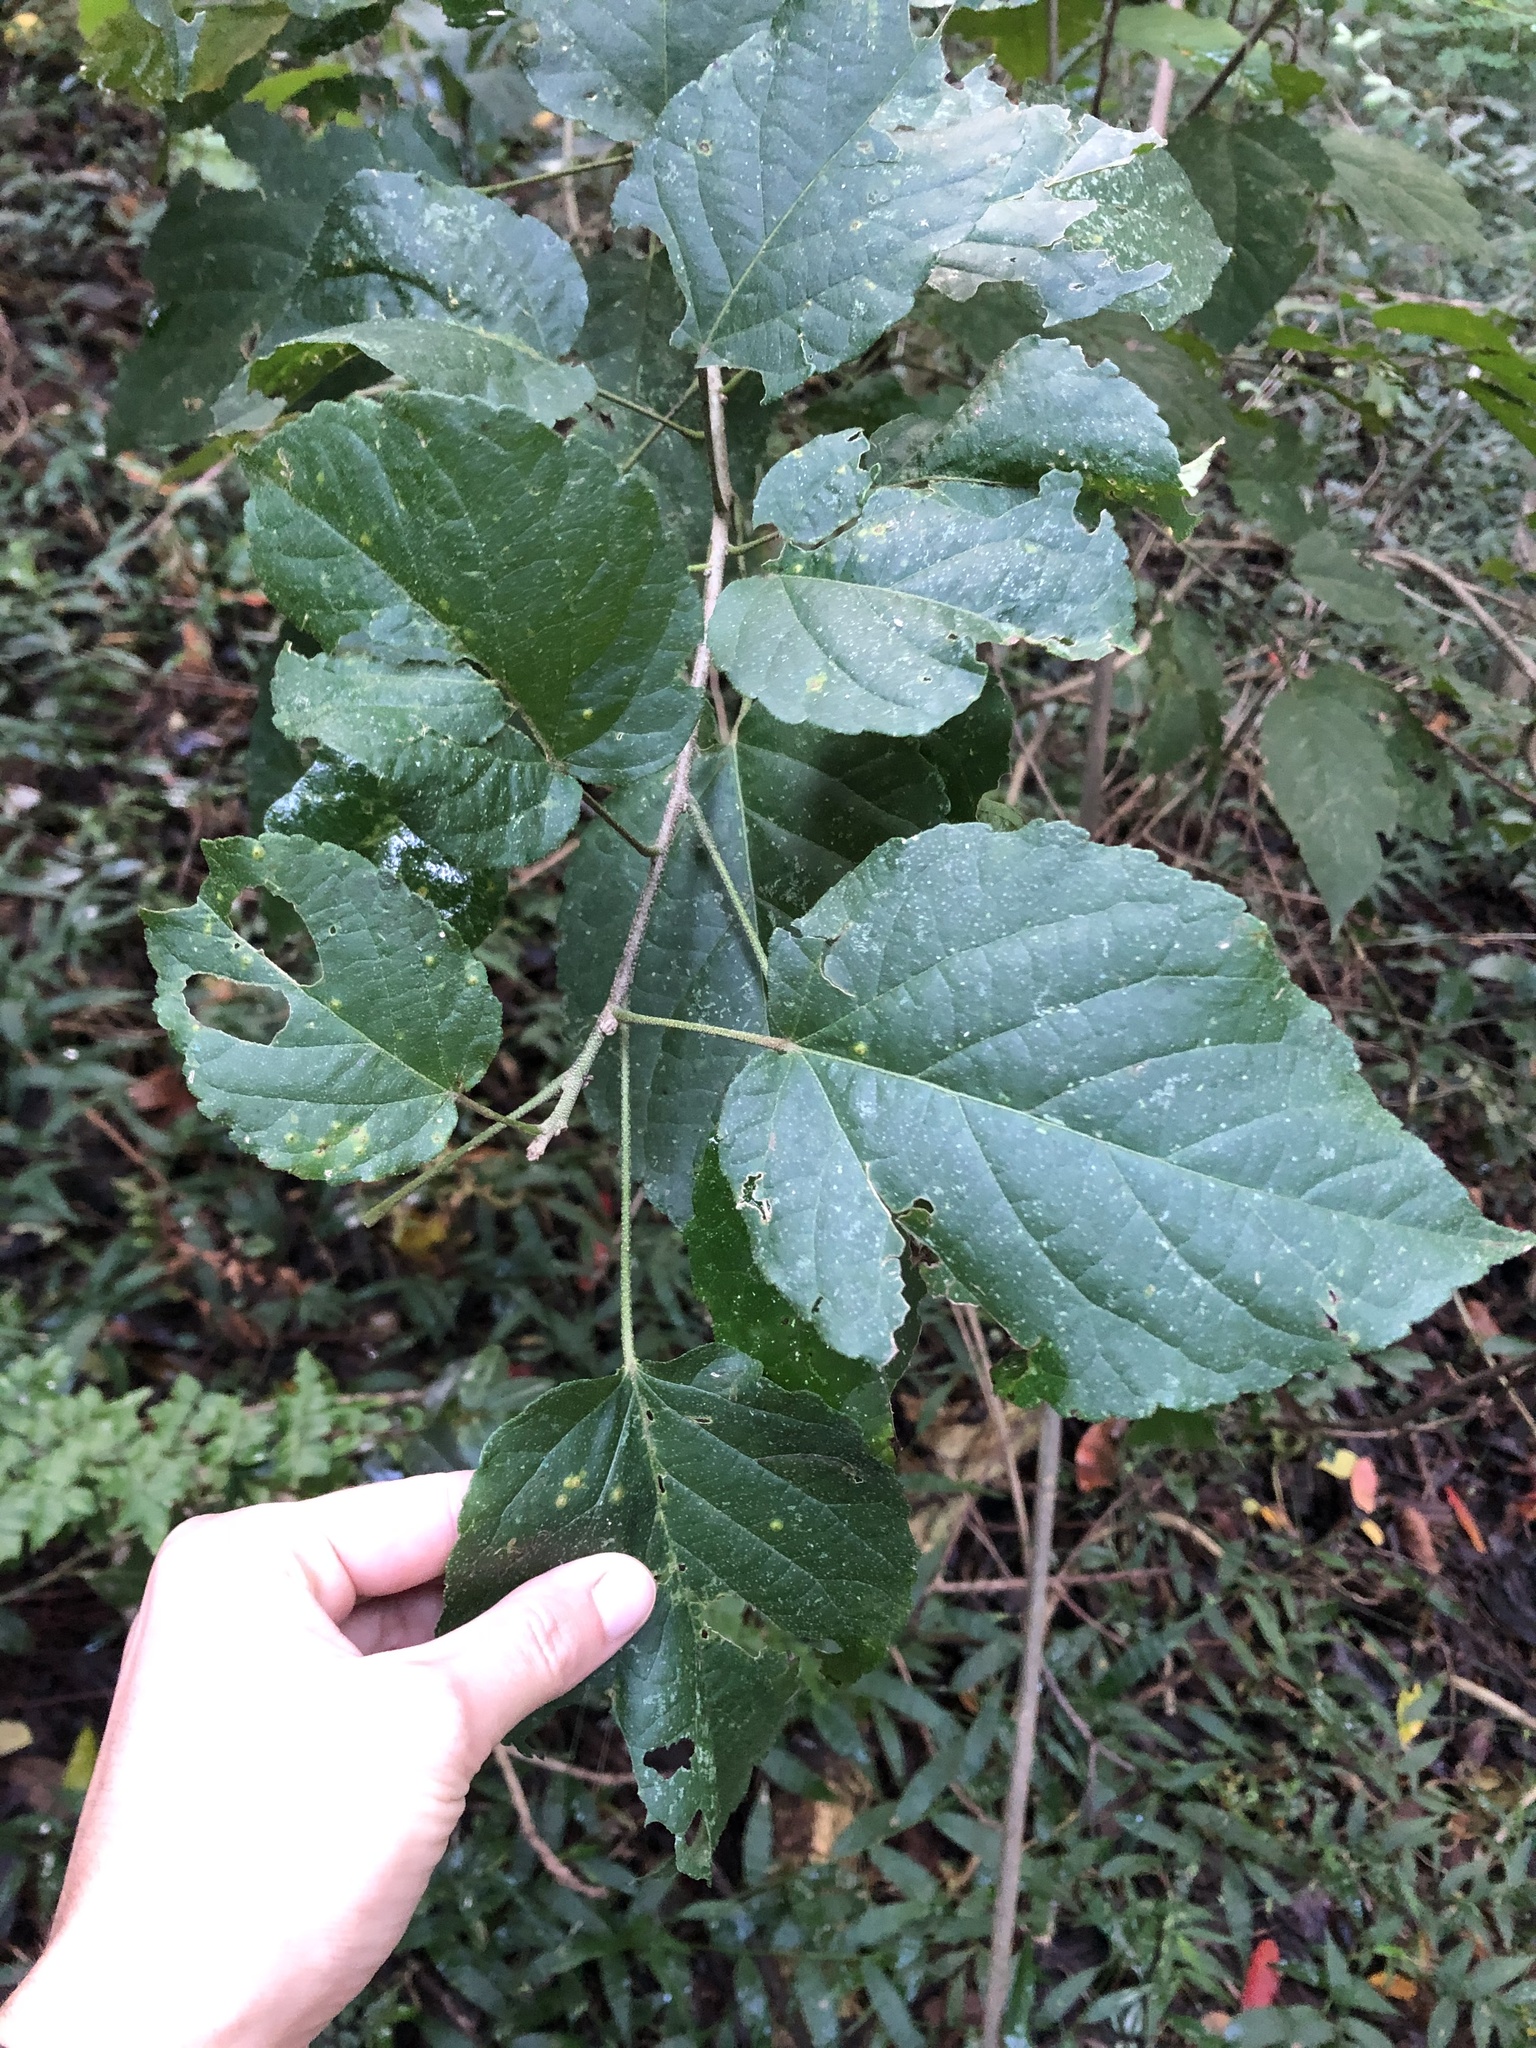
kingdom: Plantae
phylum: Tracheophyta
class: Magnoliopsida
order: Malpighiales
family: Euphorbiaceae
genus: Croton
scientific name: Croton sylvaticus
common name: Forest croton
